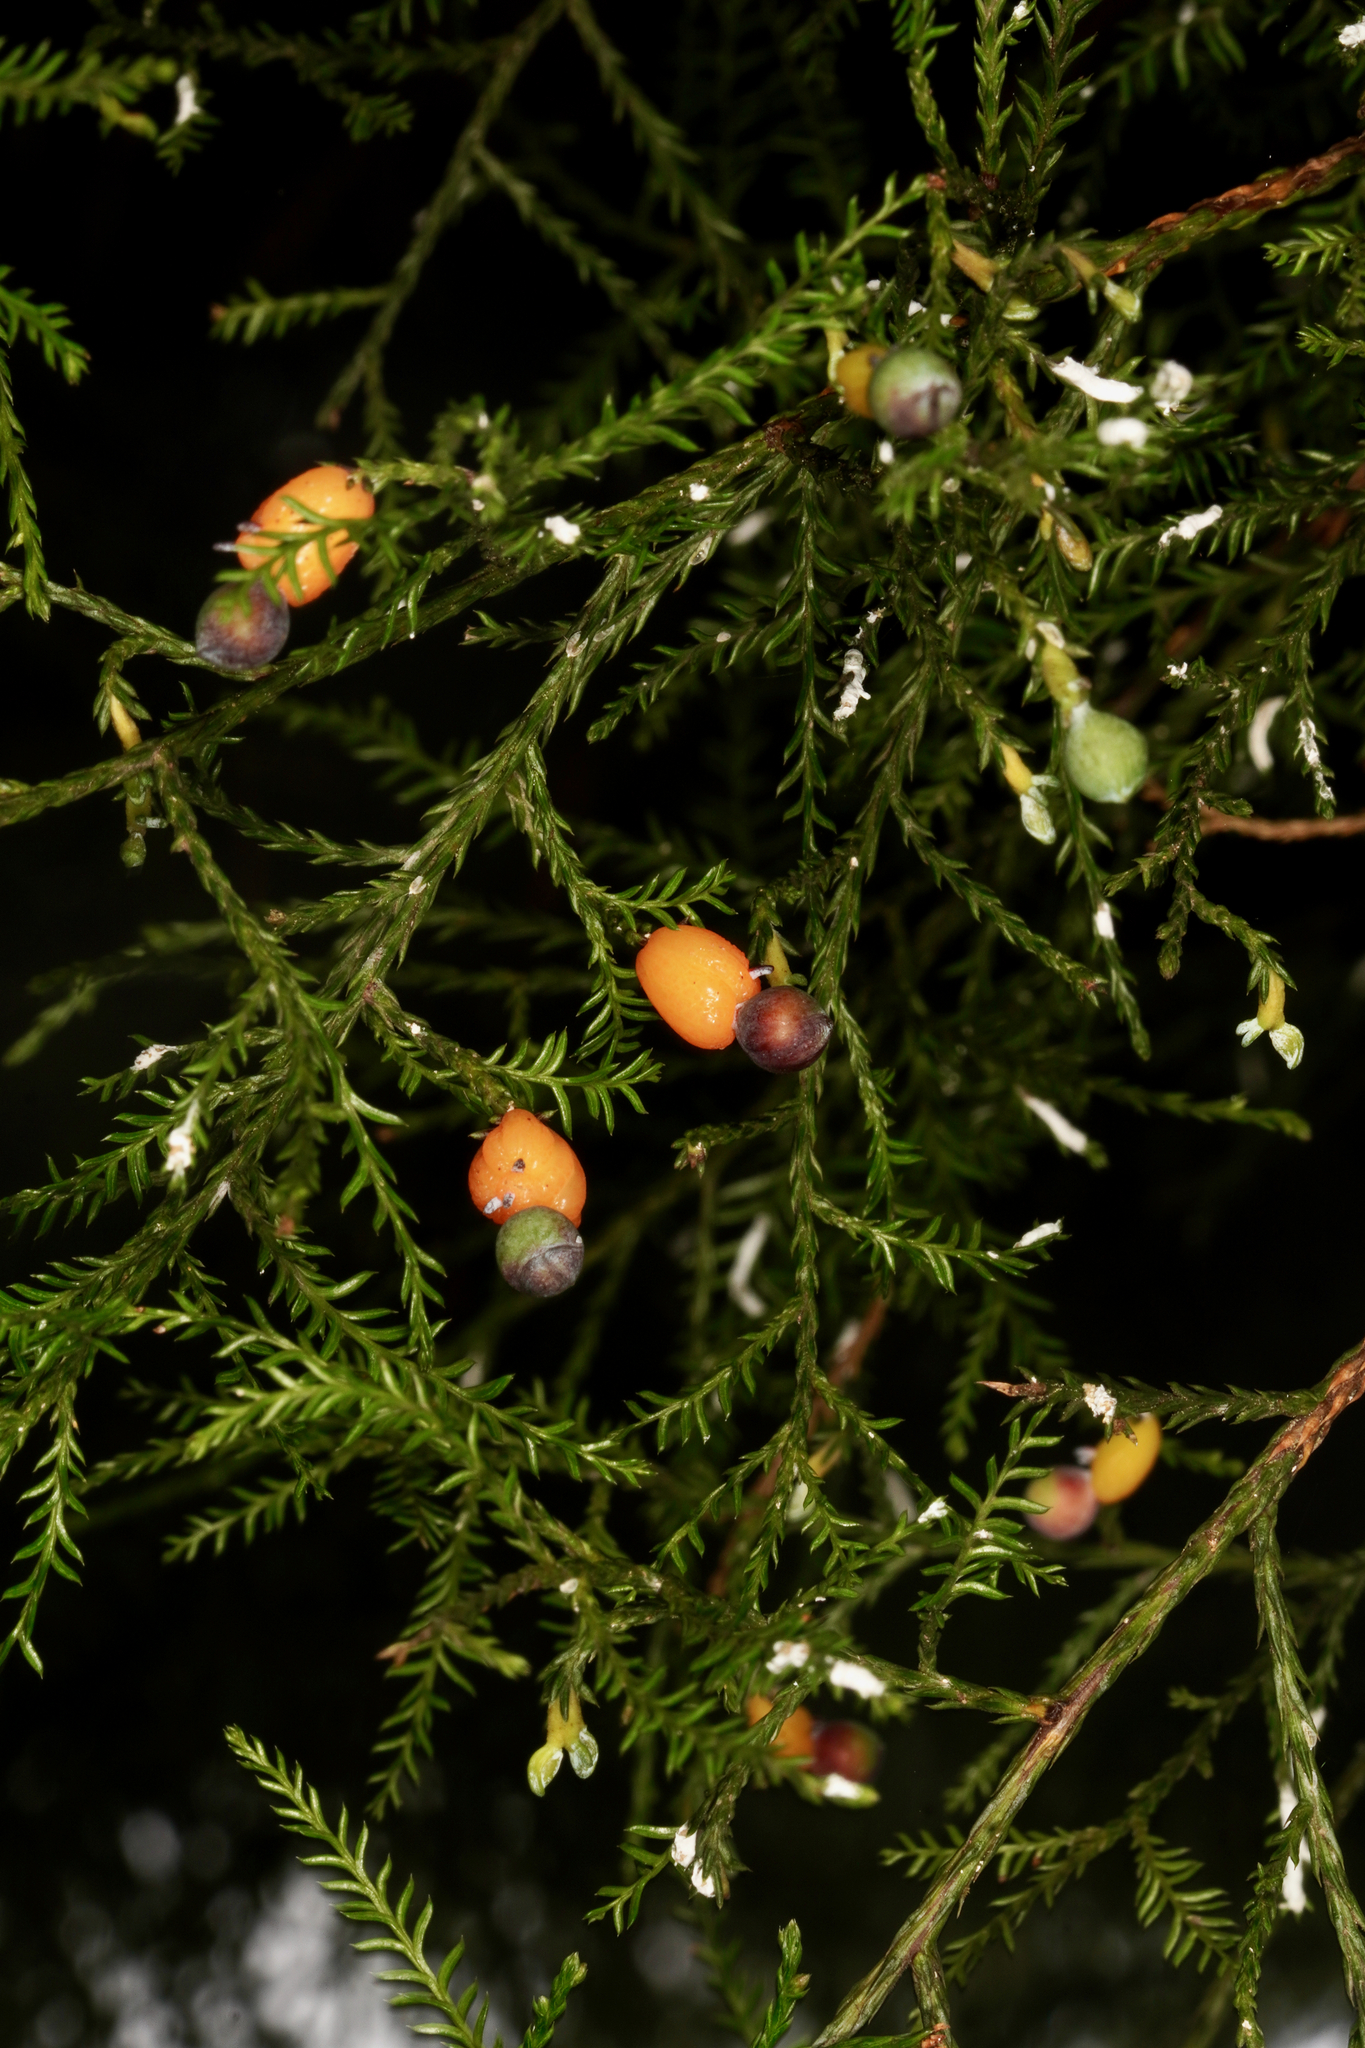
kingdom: Plantae
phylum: Tracheophyta
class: Pinopsida
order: Pinales
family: Podocarpaceae
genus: Dacrycarpus
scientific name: Dacrycarpus dacrydioides
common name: White pine
